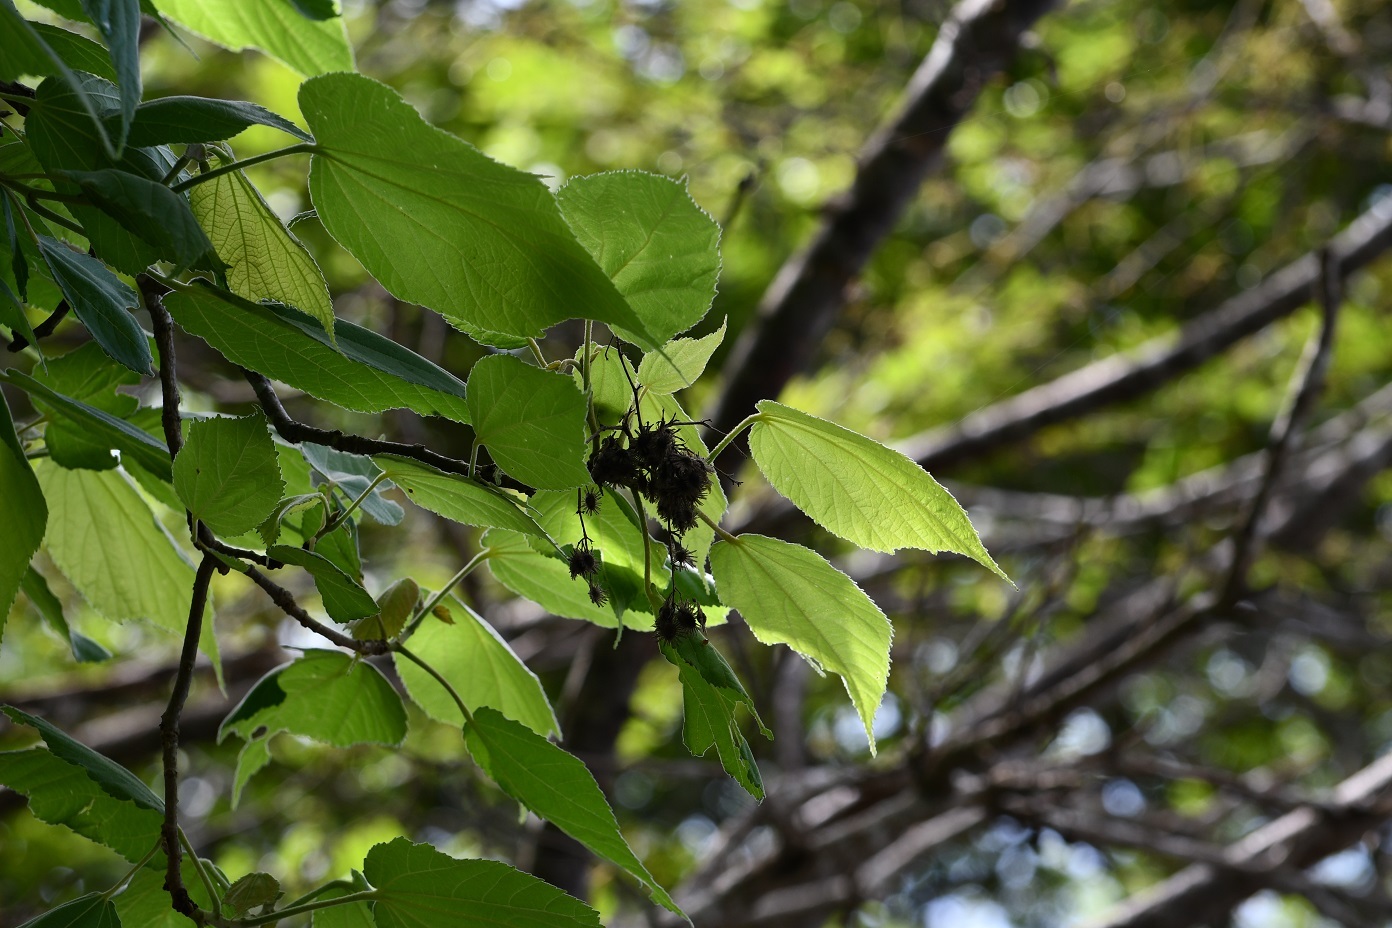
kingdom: Plantae
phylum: Tracheophyta
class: Magnoliopsida
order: Malvales
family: Malvaceae
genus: Heliocarpus
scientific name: Heliocarpus terebinthinaceus
